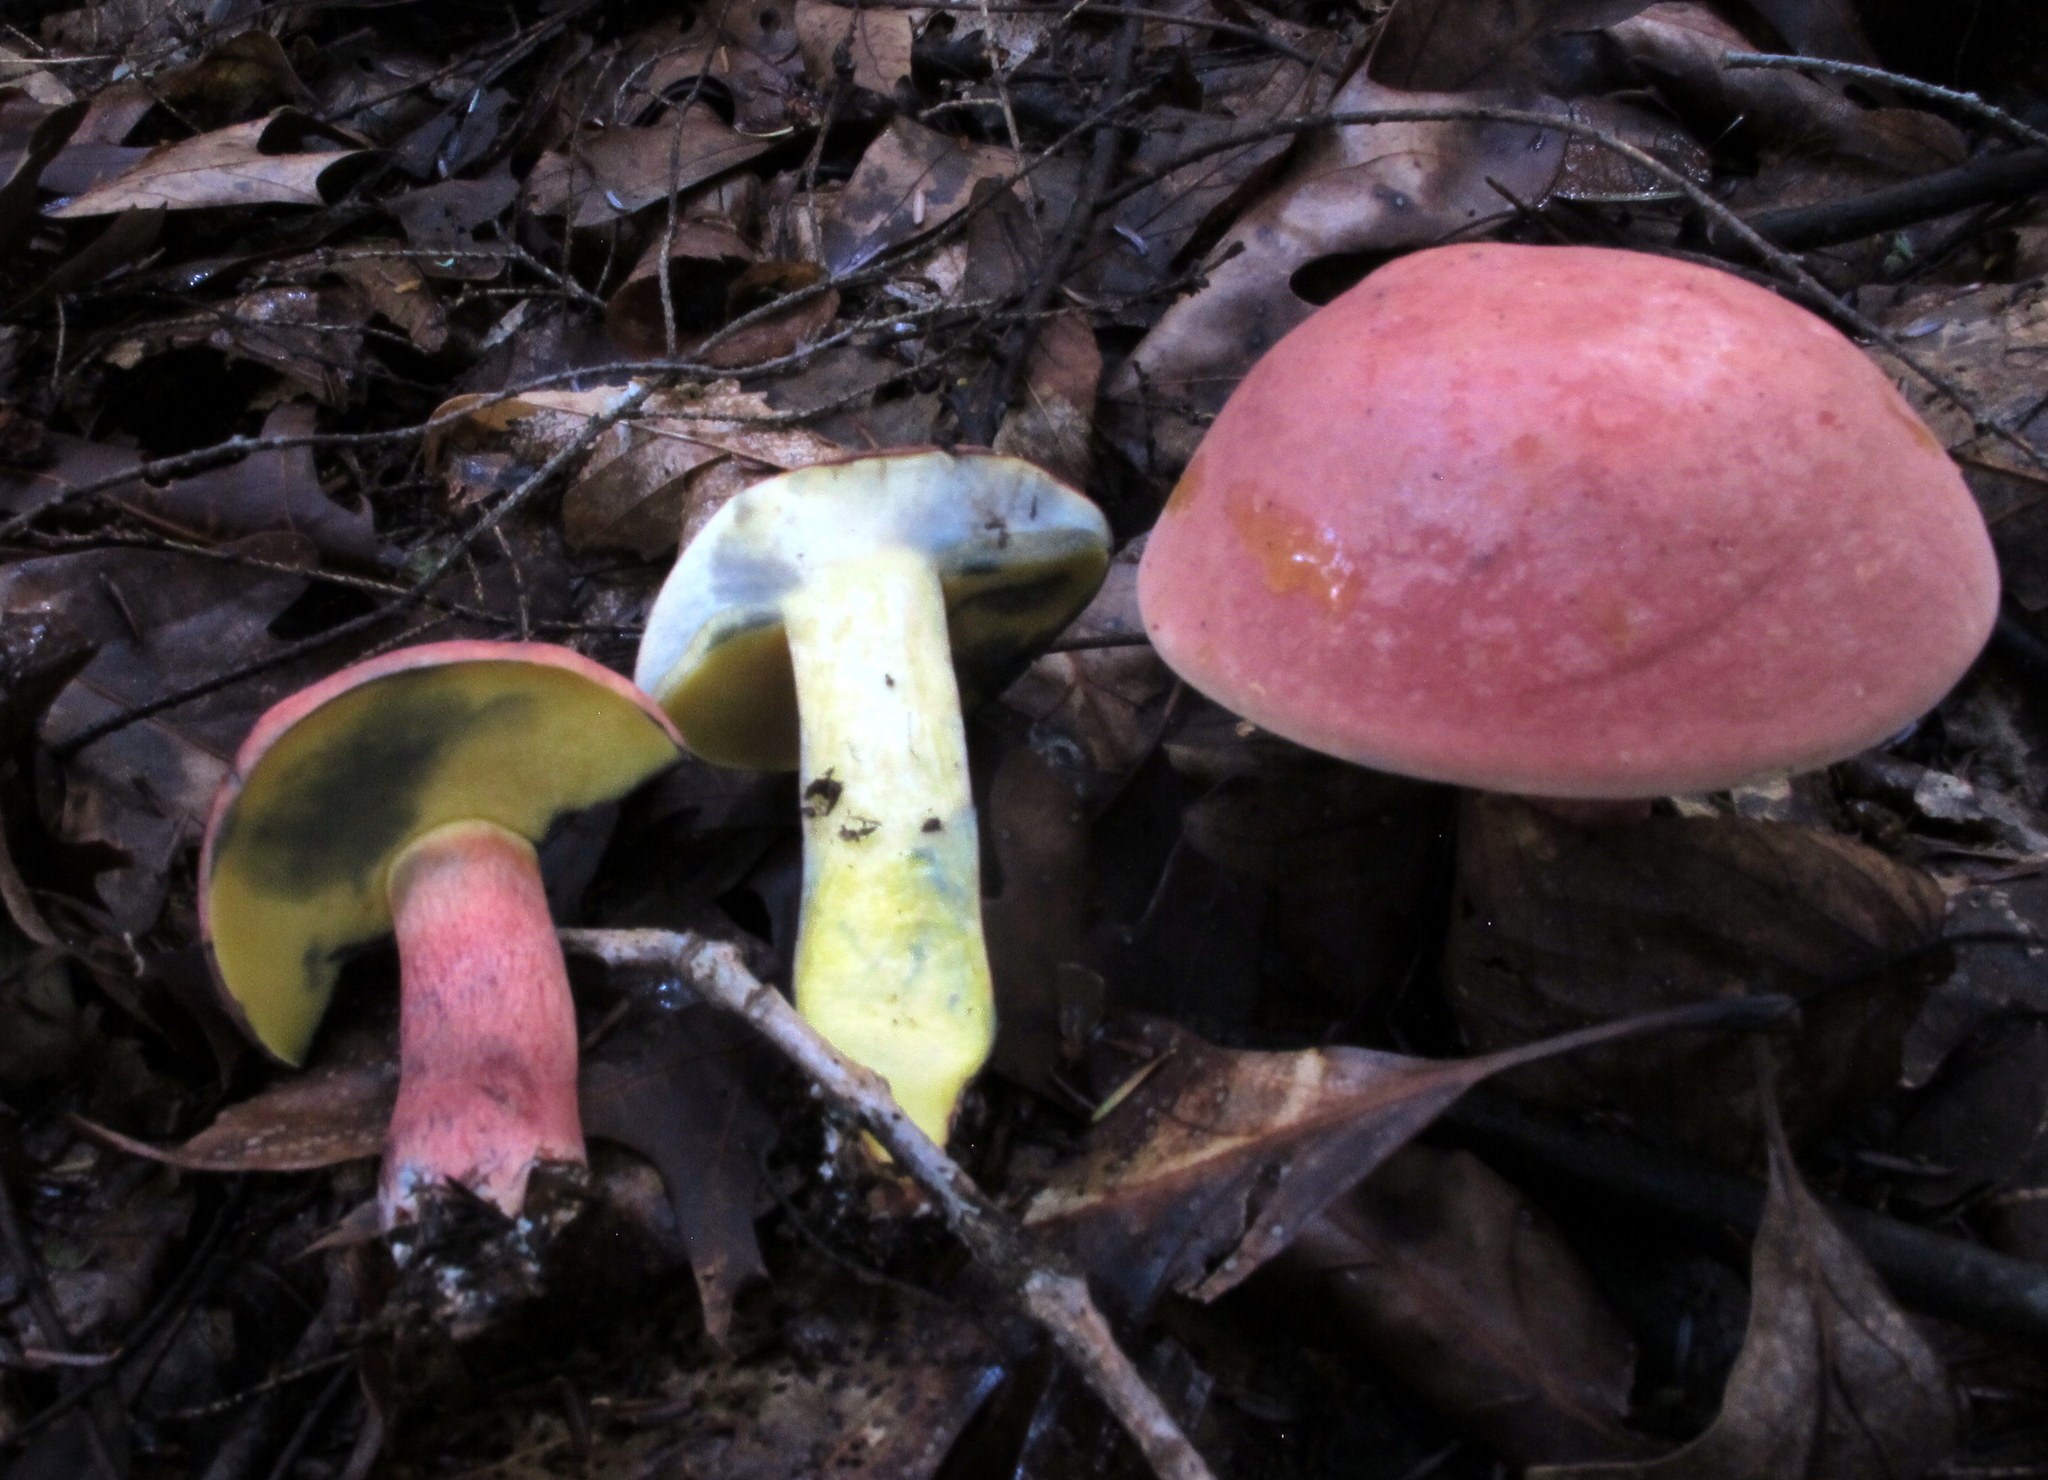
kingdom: Fungi
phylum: Basidiomycota
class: Agaricomycetes
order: Boletales
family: Boletaceae
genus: Baorangia
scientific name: Baorangia bicolor
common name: Two-colored bolete
